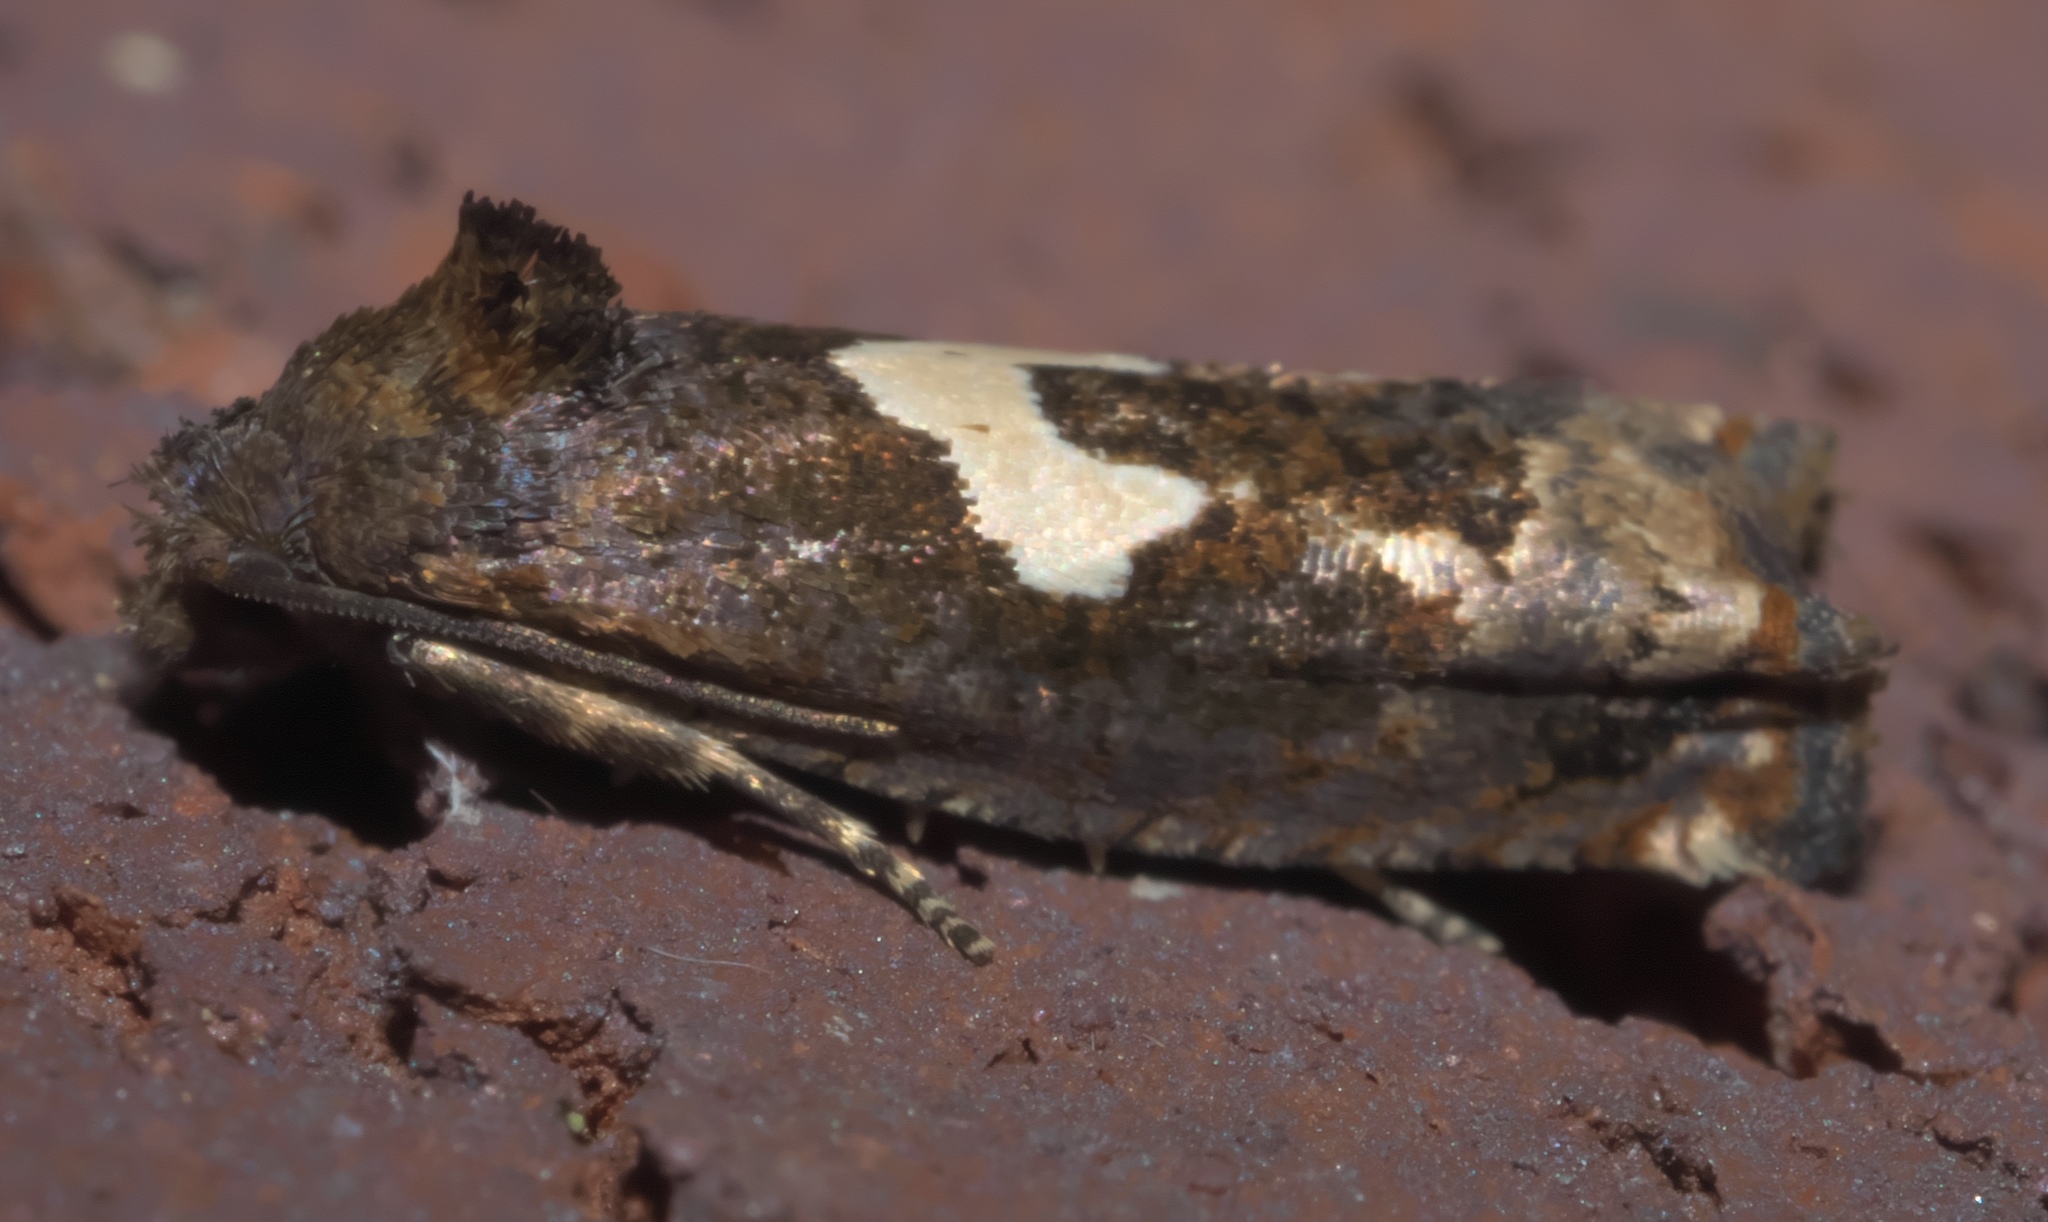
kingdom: Animalia
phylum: Arthropoda
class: Insecta
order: Lepidoptera
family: Tortricidae
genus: Epiblema
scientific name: Epiblema otiosana
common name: Bidens borer moth
